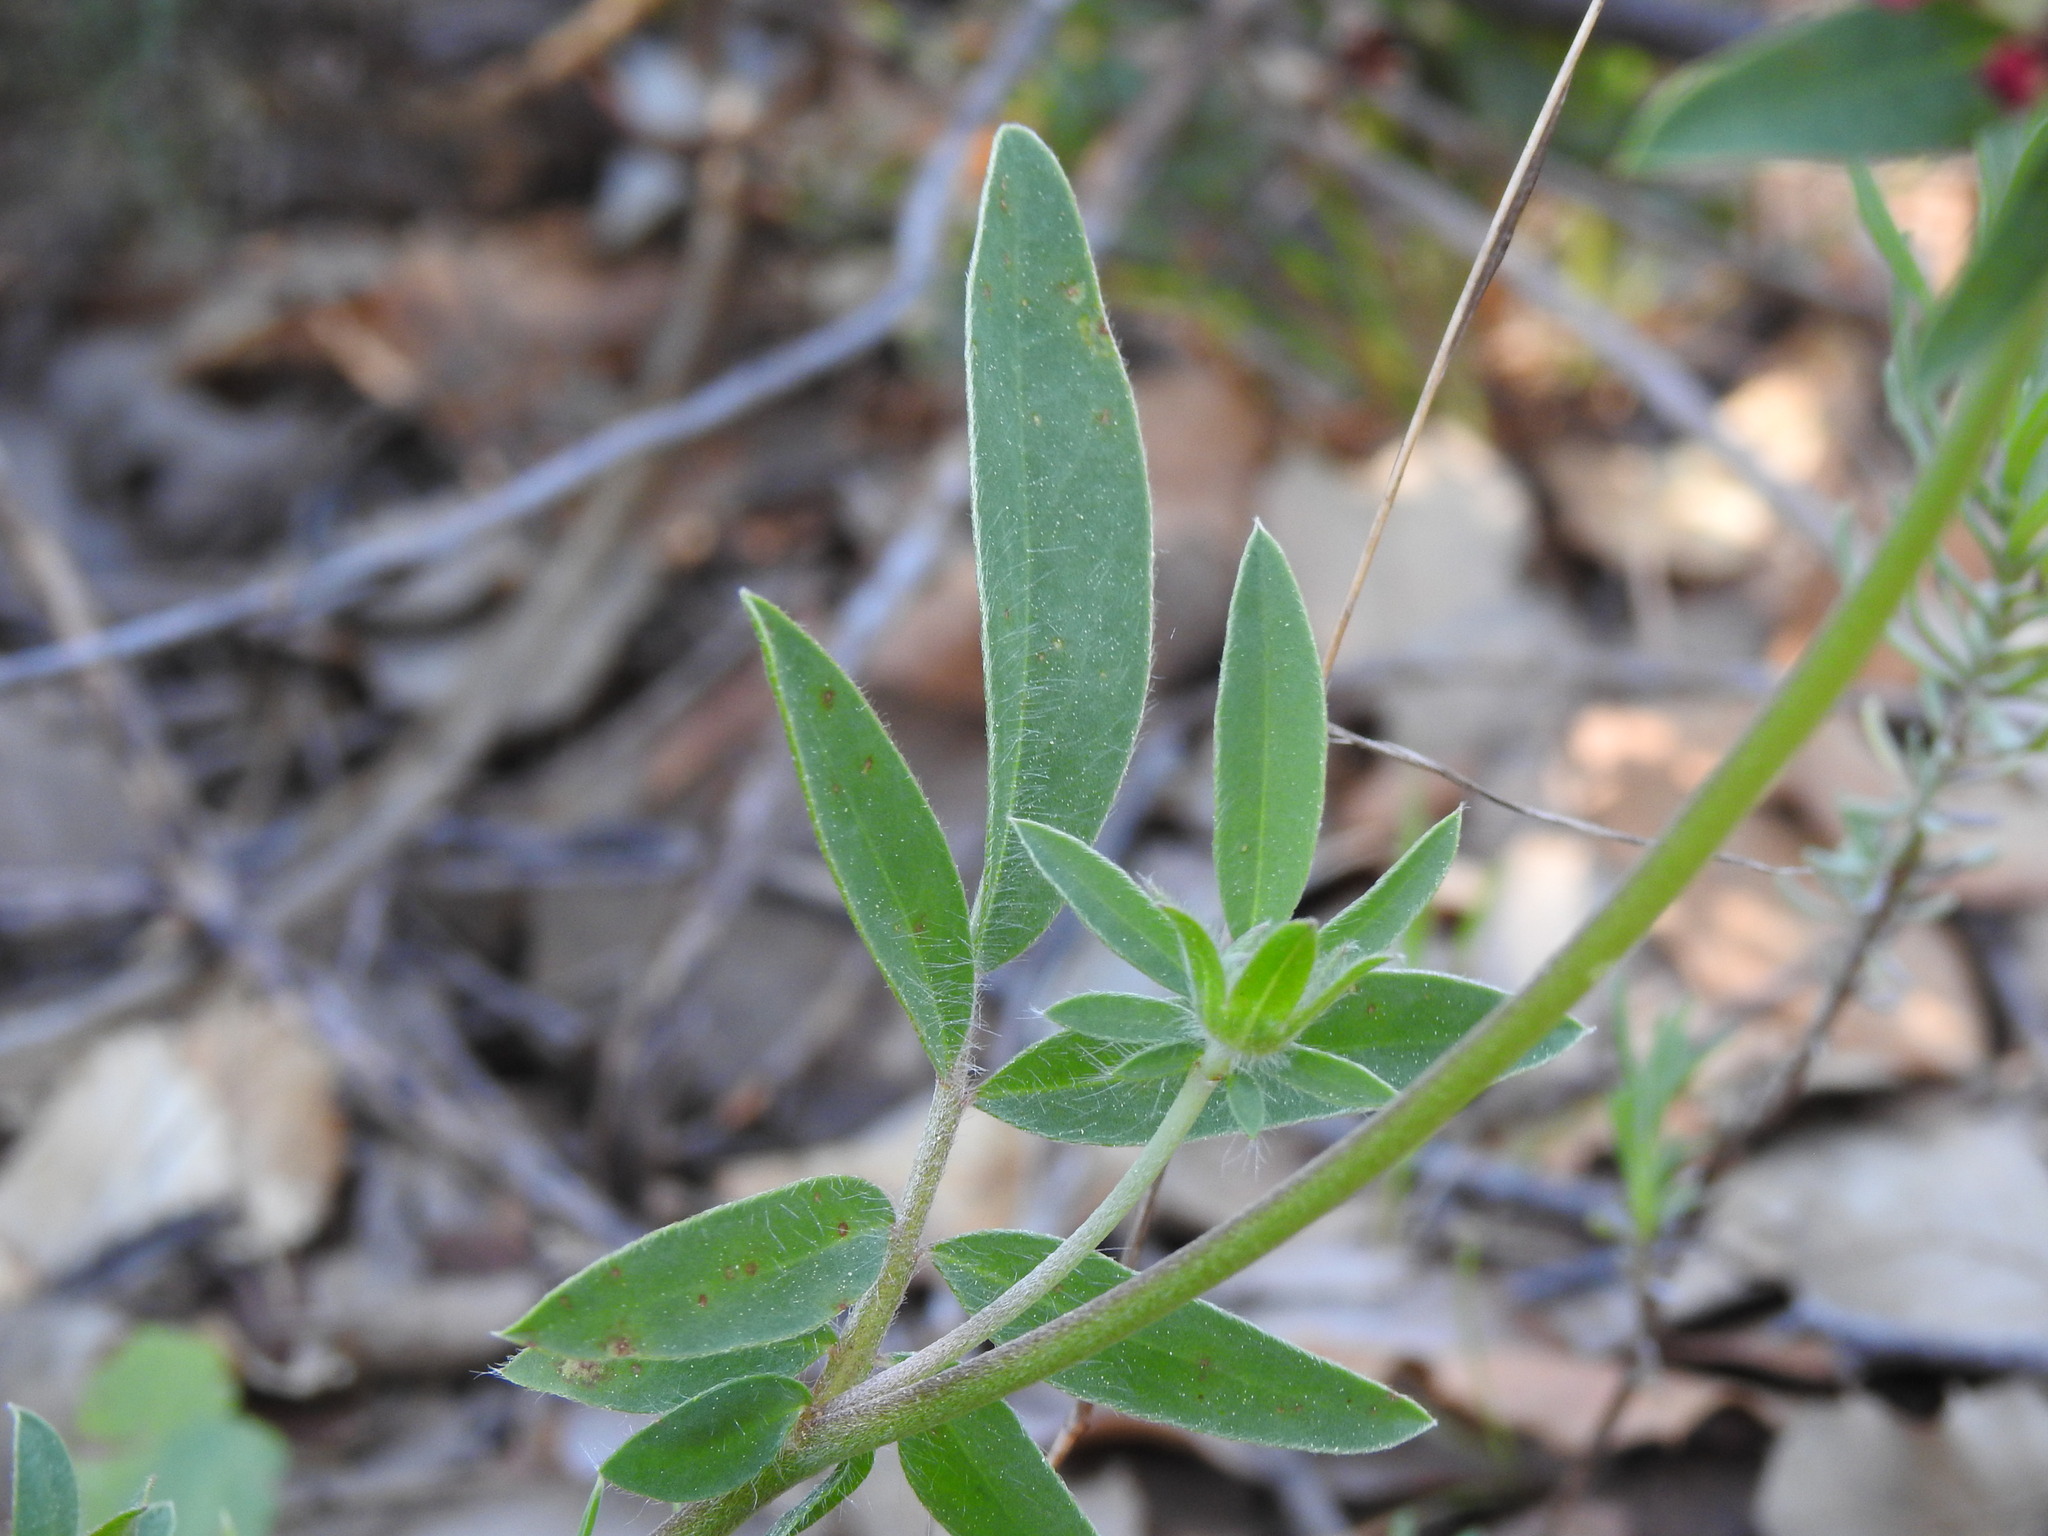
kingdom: Plantae
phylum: Tracheophyta
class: Magnoliopsida
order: Fabales
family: Fabaceae
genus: Anthyllis
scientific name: Anthyllis vulneraria
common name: Kidney vetch
